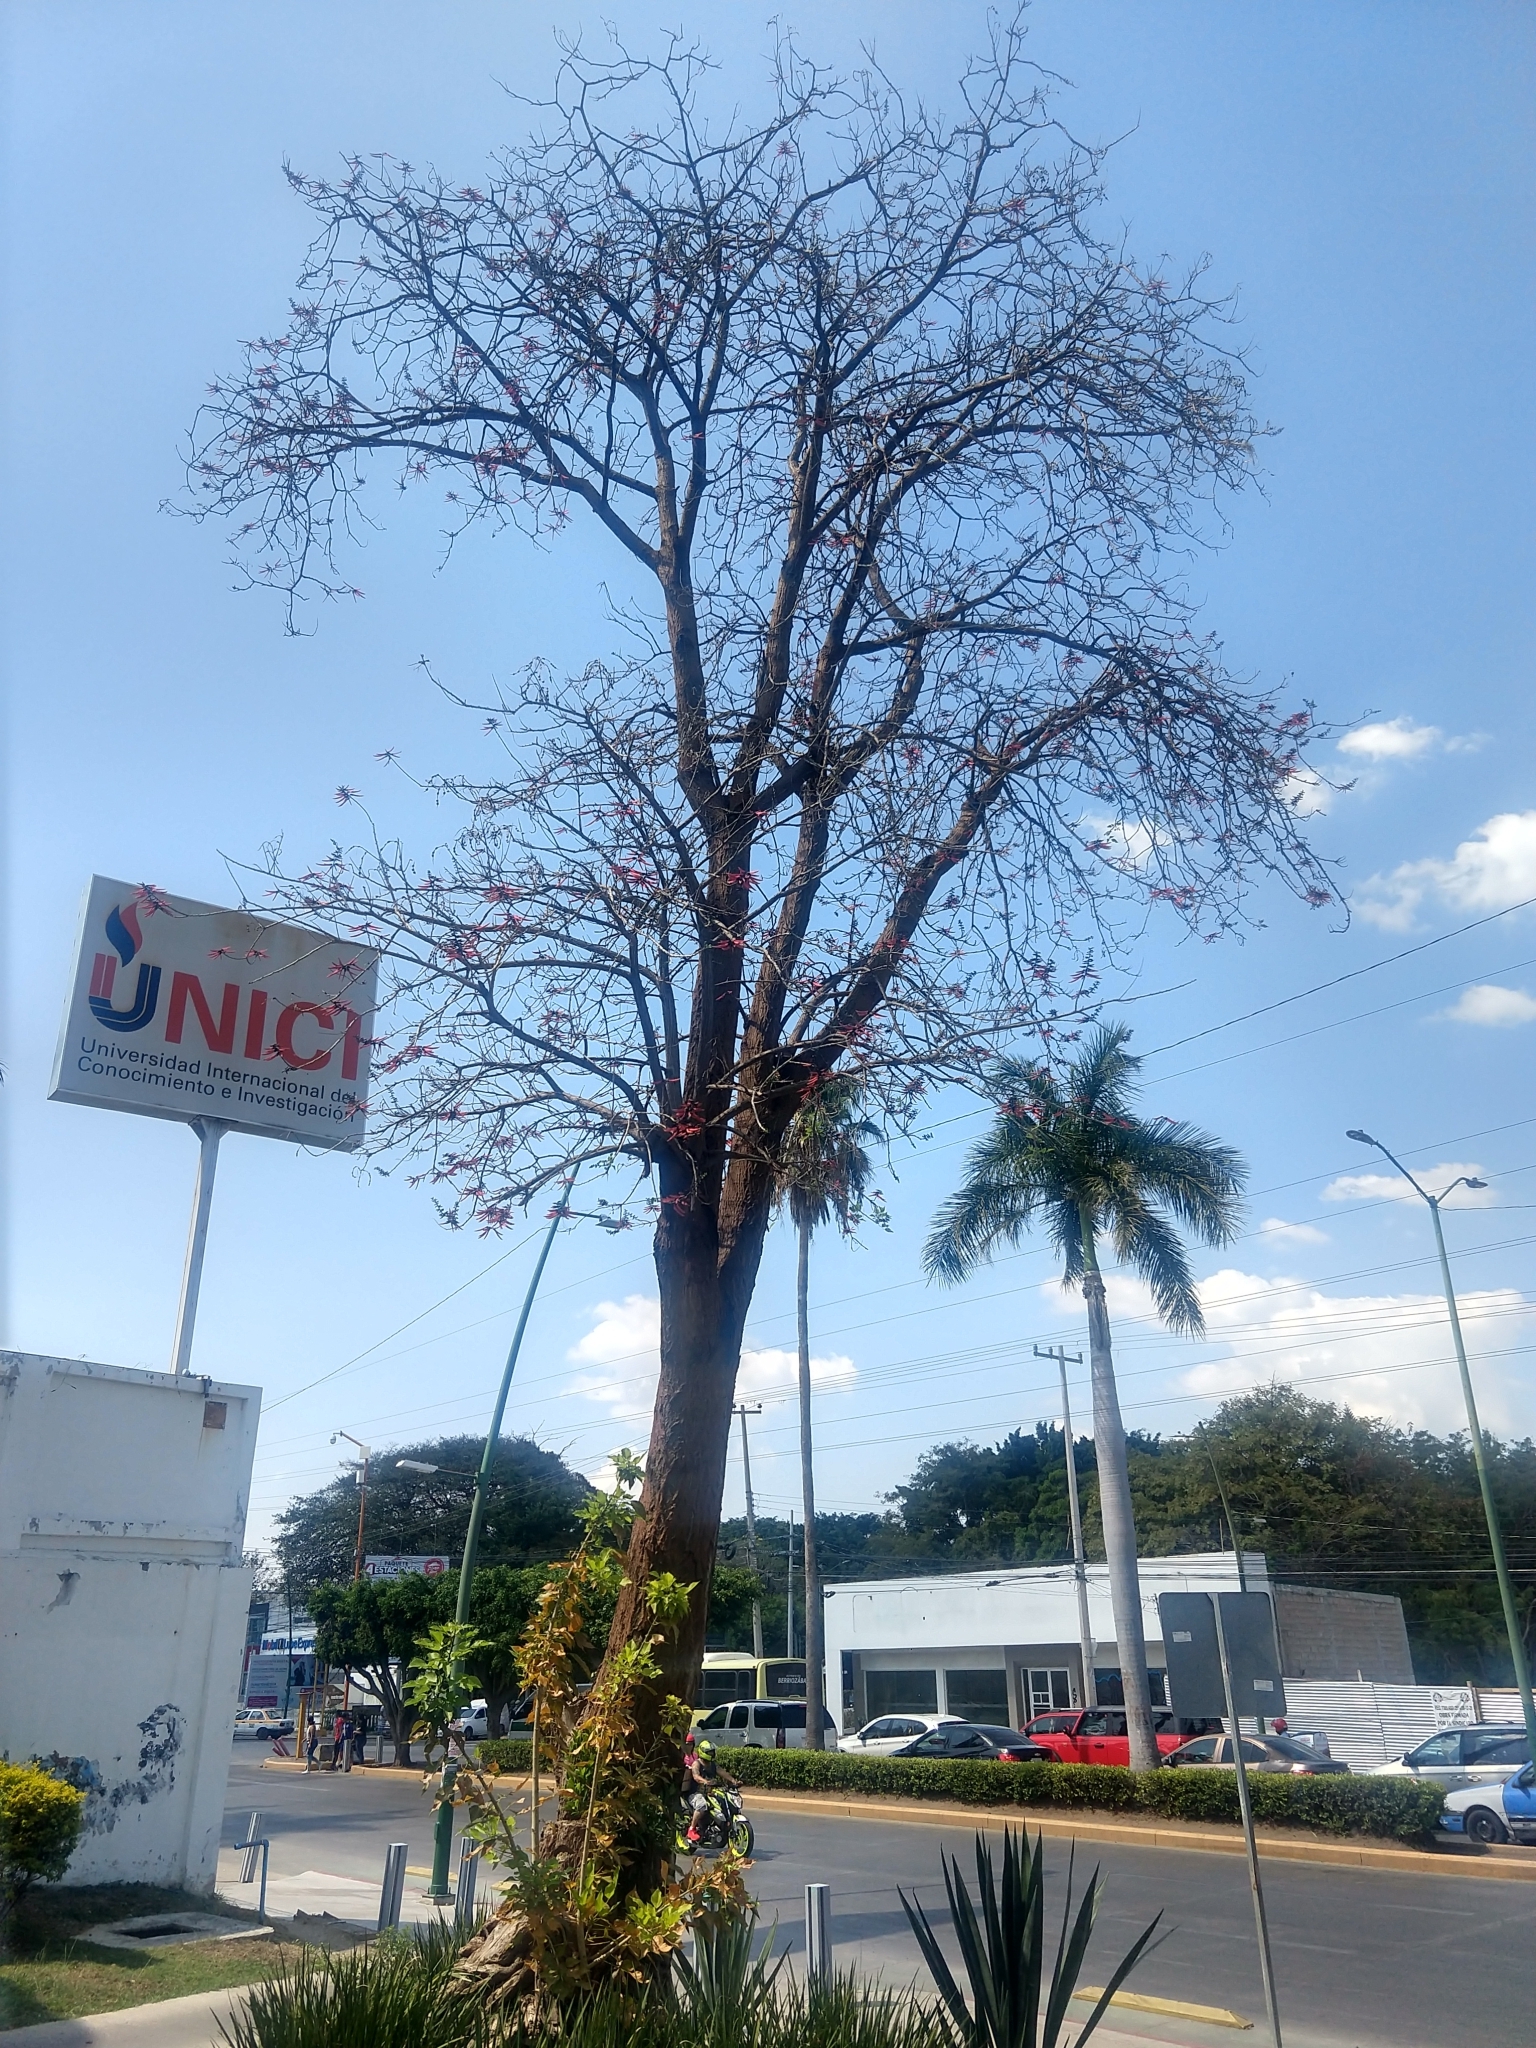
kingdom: Plantae
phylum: Tracheophyta
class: Magnoliopsida
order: Fabales
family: Fabaceae
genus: Erythrina
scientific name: Erythrina goldmanii
